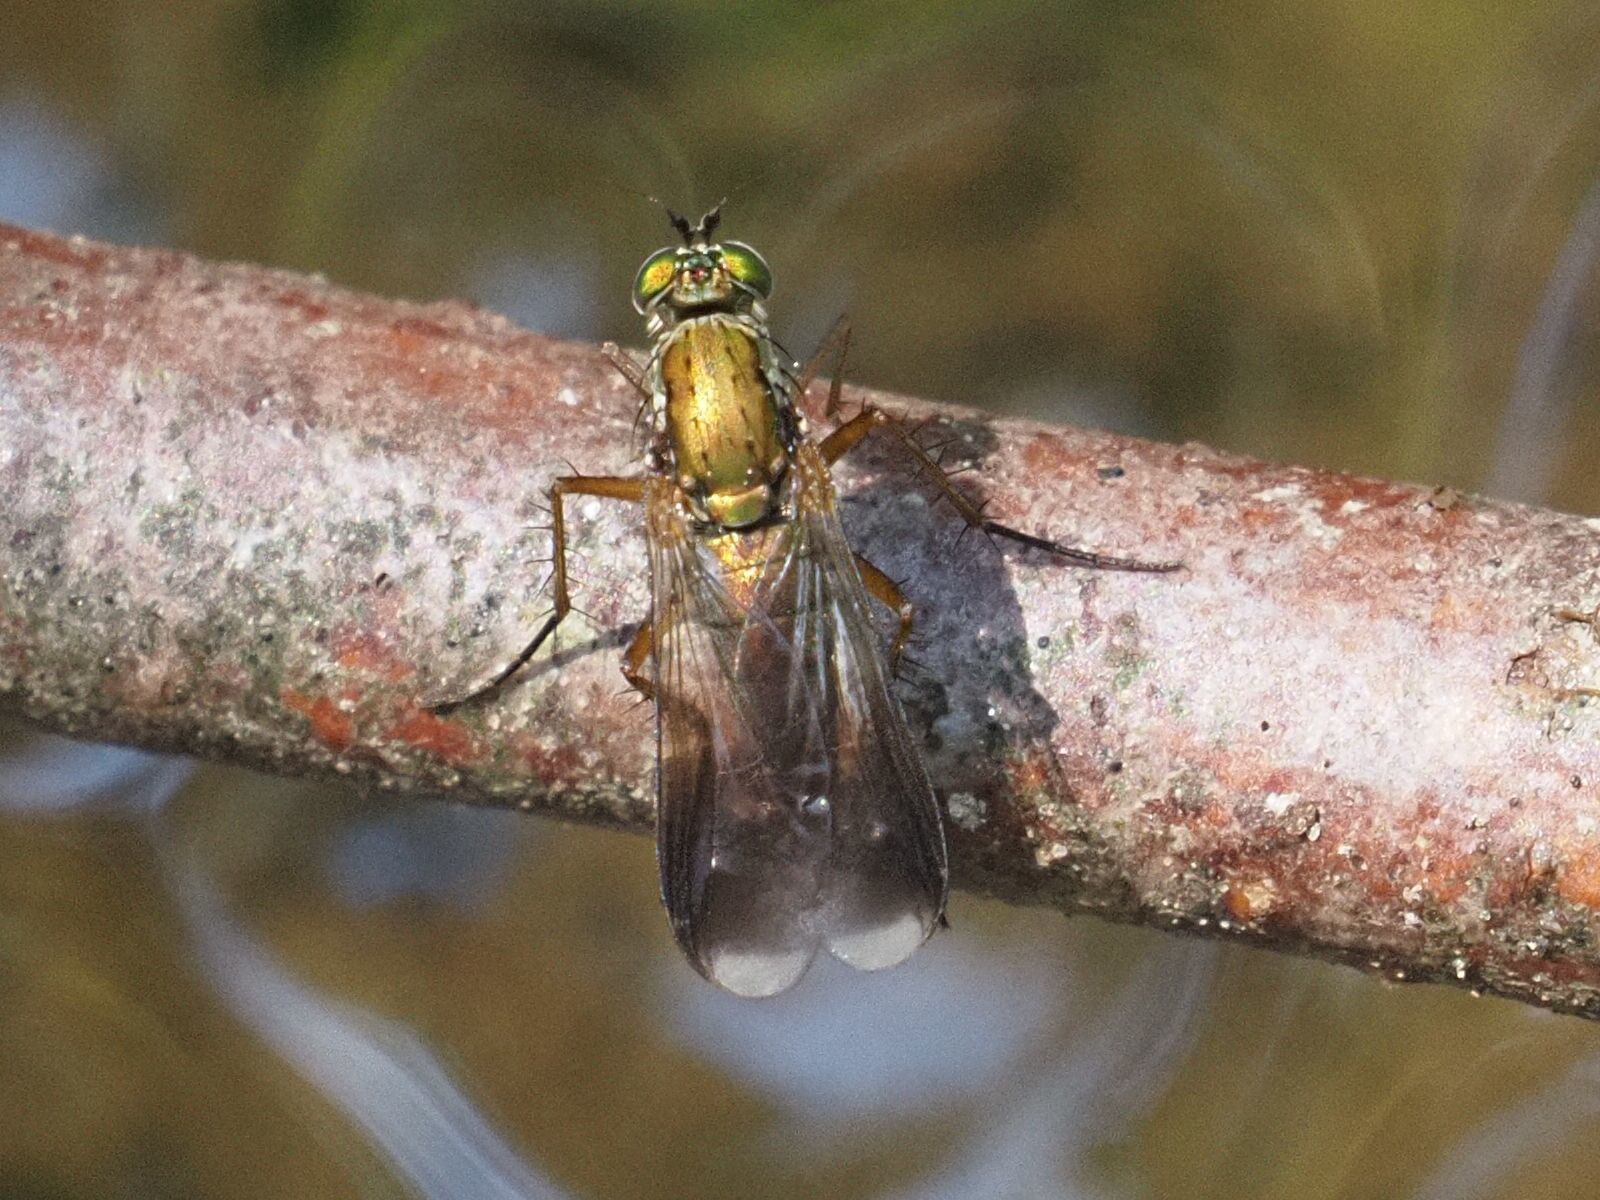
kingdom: Animalia
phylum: Arthropoda
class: Insecta
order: Diptera
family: Dolichopodidae
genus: Poecilobothrus
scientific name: Poecilobothrus nobilitatus
